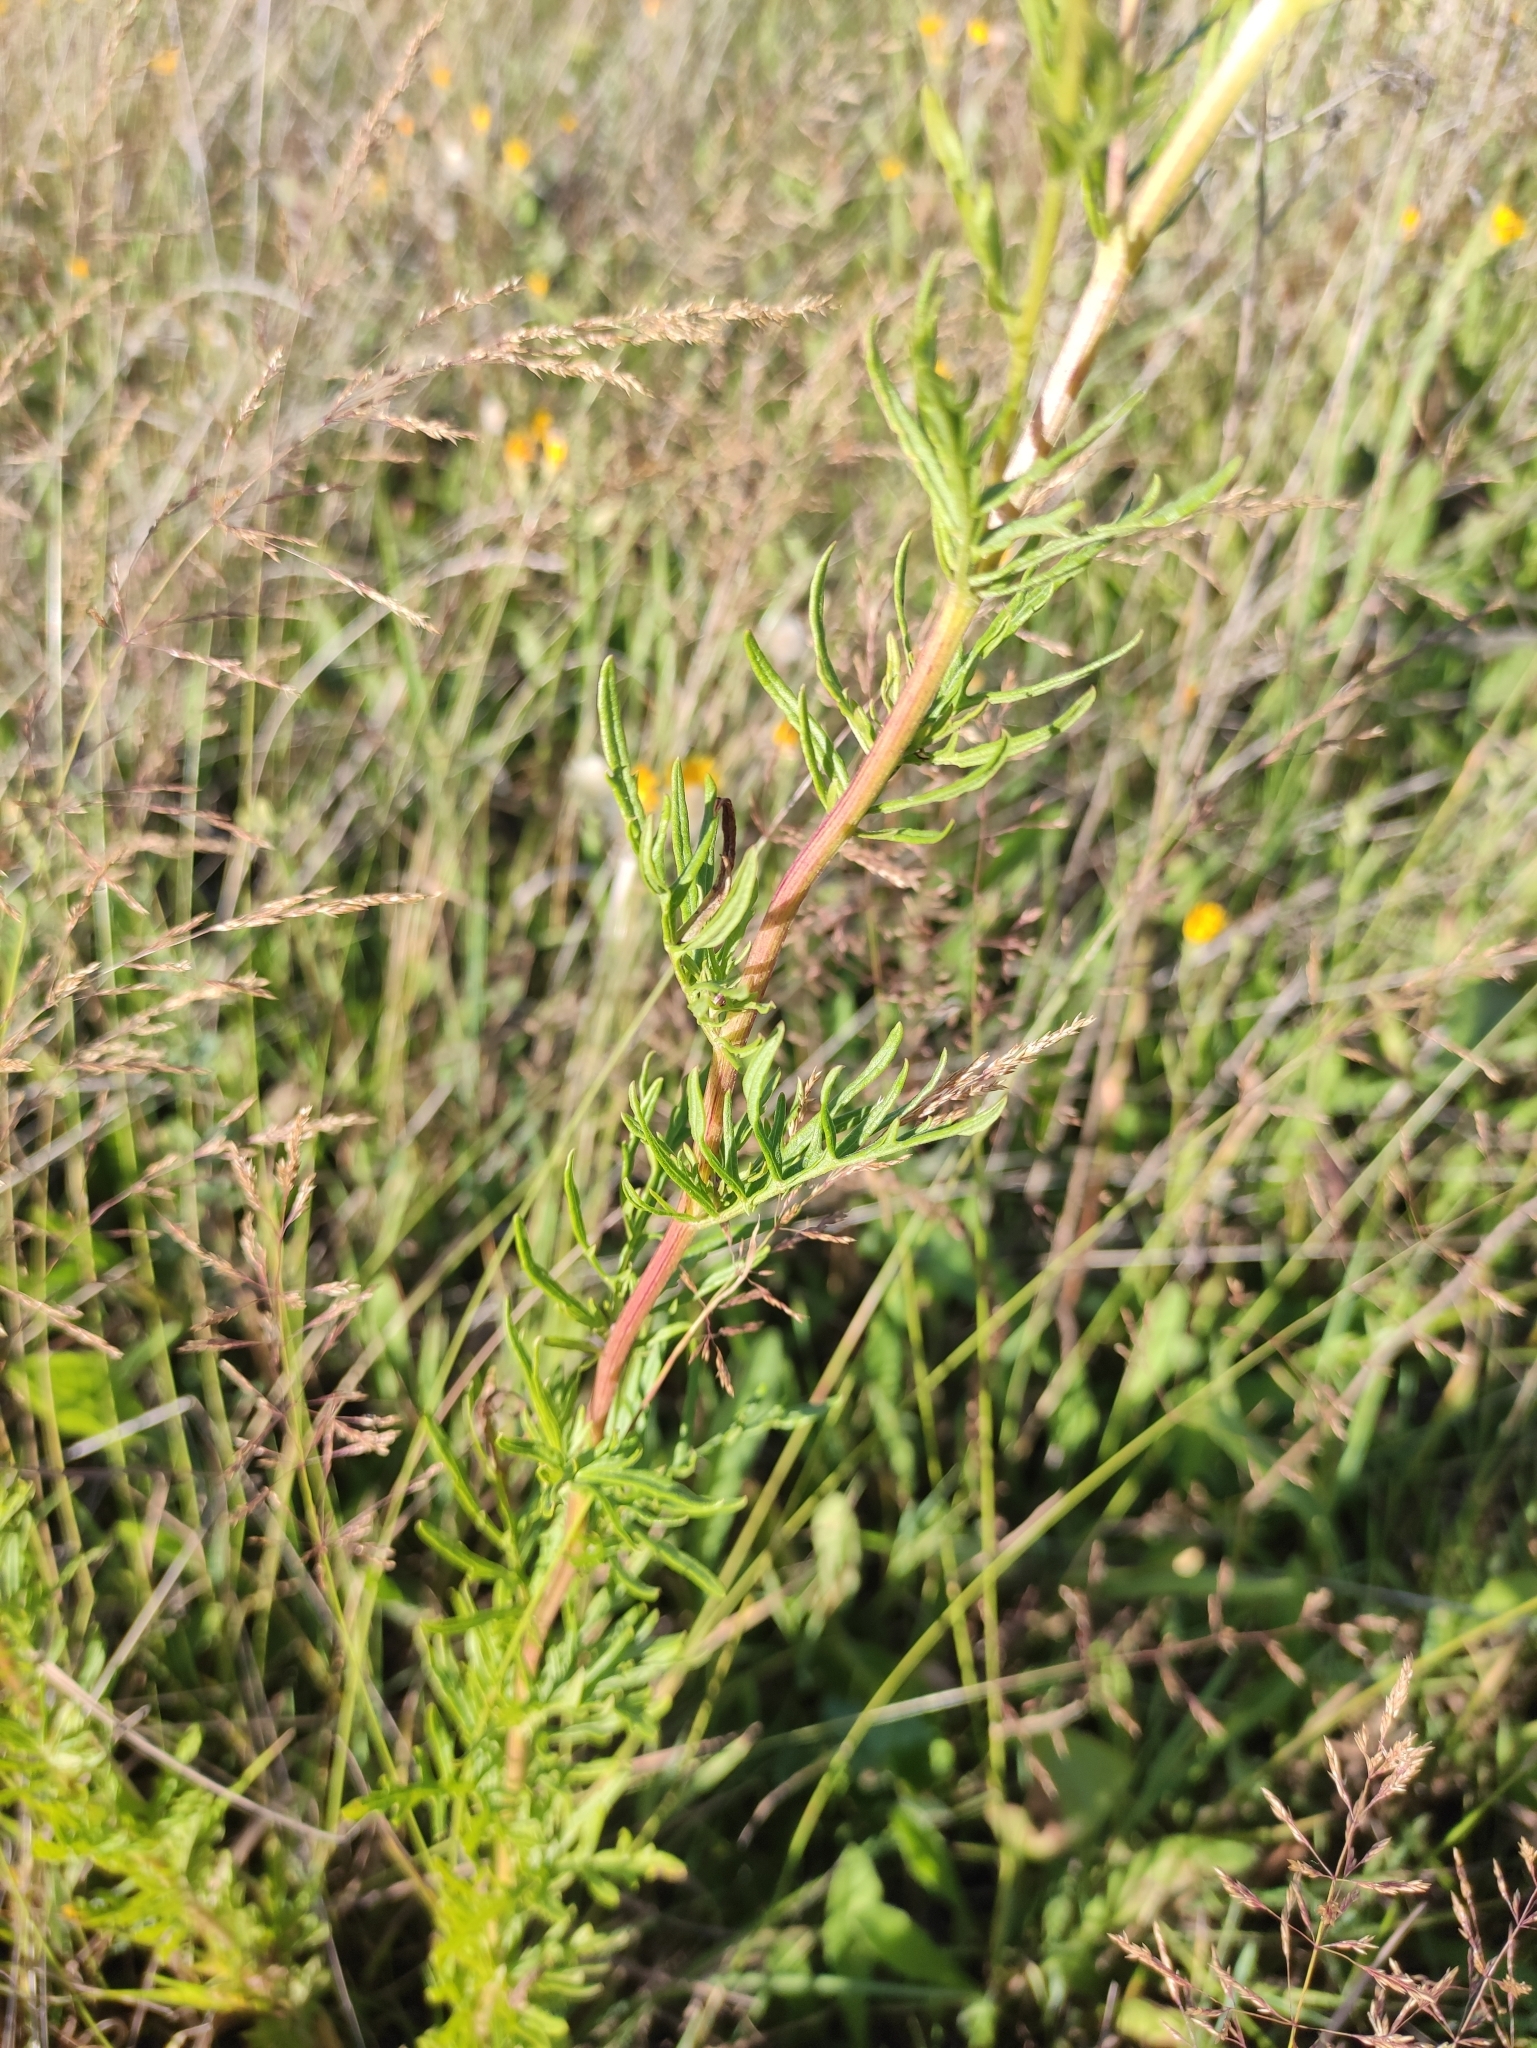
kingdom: Plantae
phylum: Tracheophyta
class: Magnoliopsida
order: Asterales
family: Asteraceae
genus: Jacobaea
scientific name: Jacobaea erucifolia
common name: Hoary ragwort
